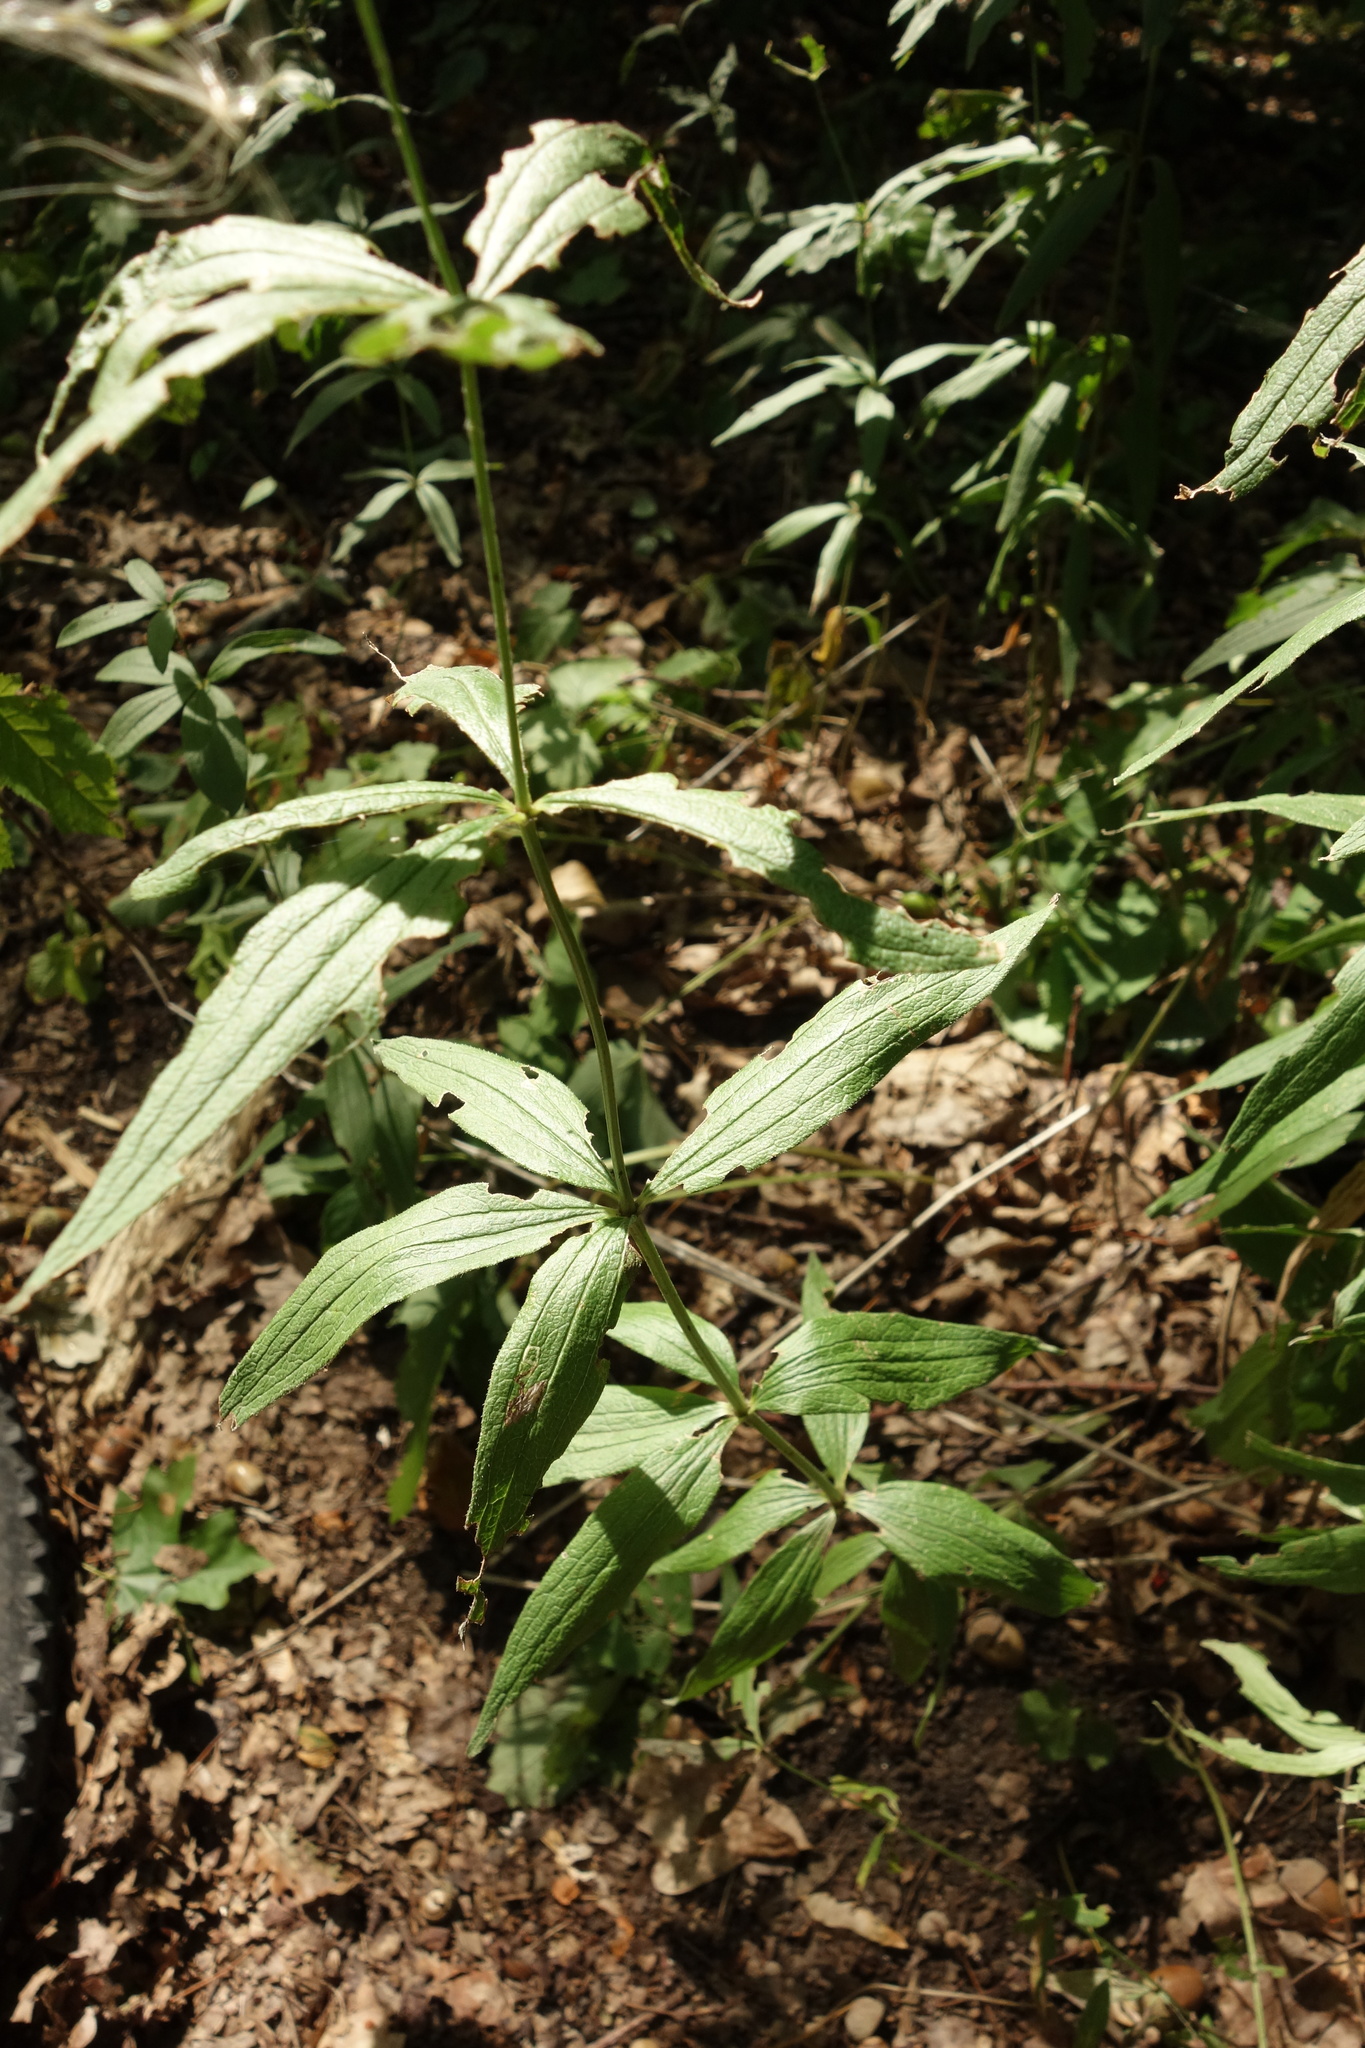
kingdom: Plantae
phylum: Tracheophyta
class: Magnoliopsida
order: Gentianales
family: Rubiaceae
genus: Galium
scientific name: Galium rubioides
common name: European bedstraw
